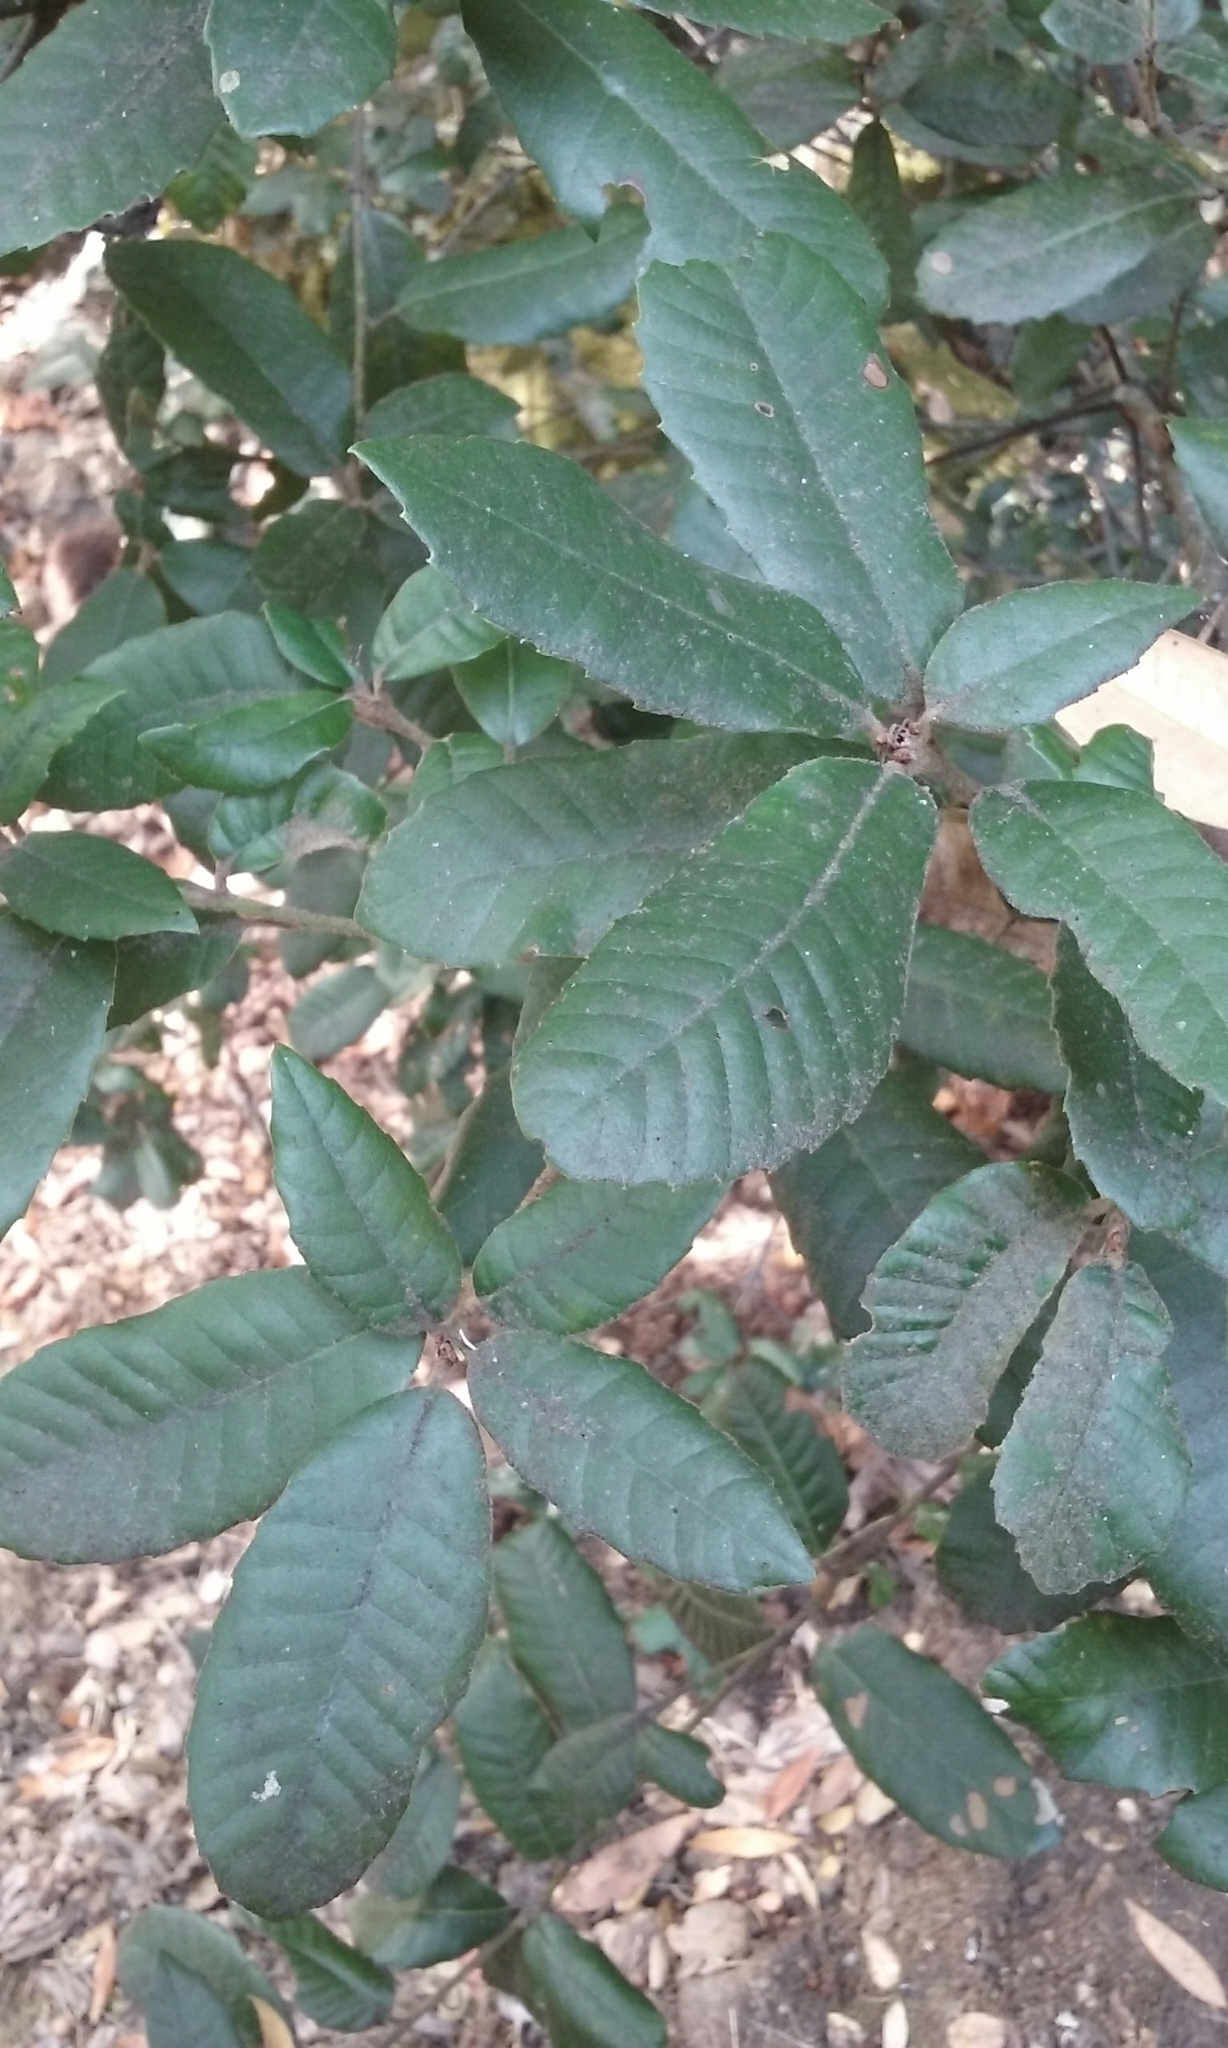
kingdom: Plantae
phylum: Tracheophyta
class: Magnoliopsida
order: Fagales
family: Fagaceae
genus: Notholithocarpus
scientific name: Notholithocarpus densiflorus
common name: Tan bark oak
